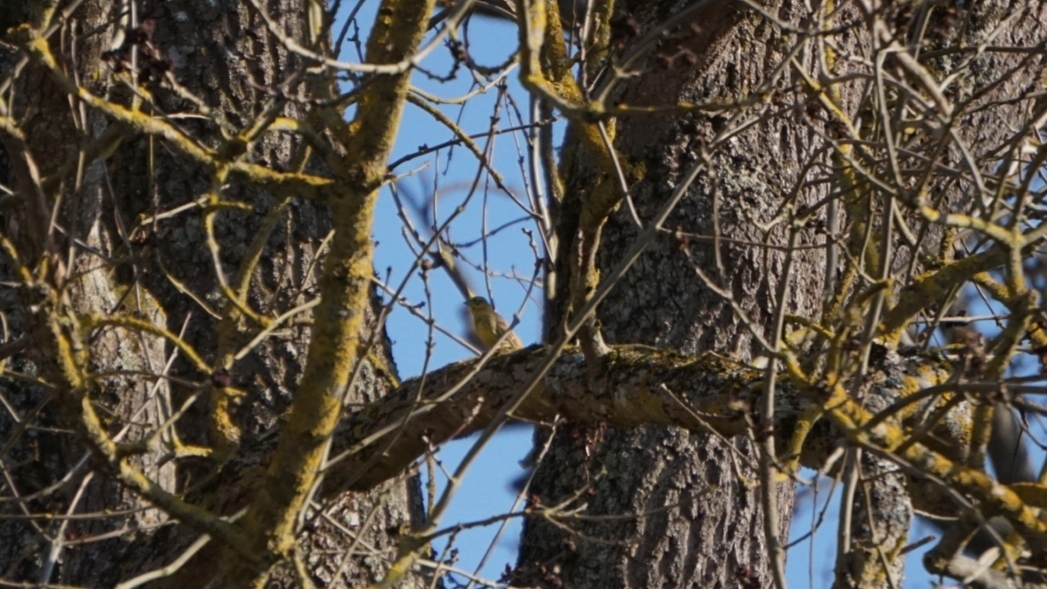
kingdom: Animalia
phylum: Chordata
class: Aves
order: Passeriformes
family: Emberizidae
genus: Emberiza
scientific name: Emberiza citrinella
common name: Yellowhammer
